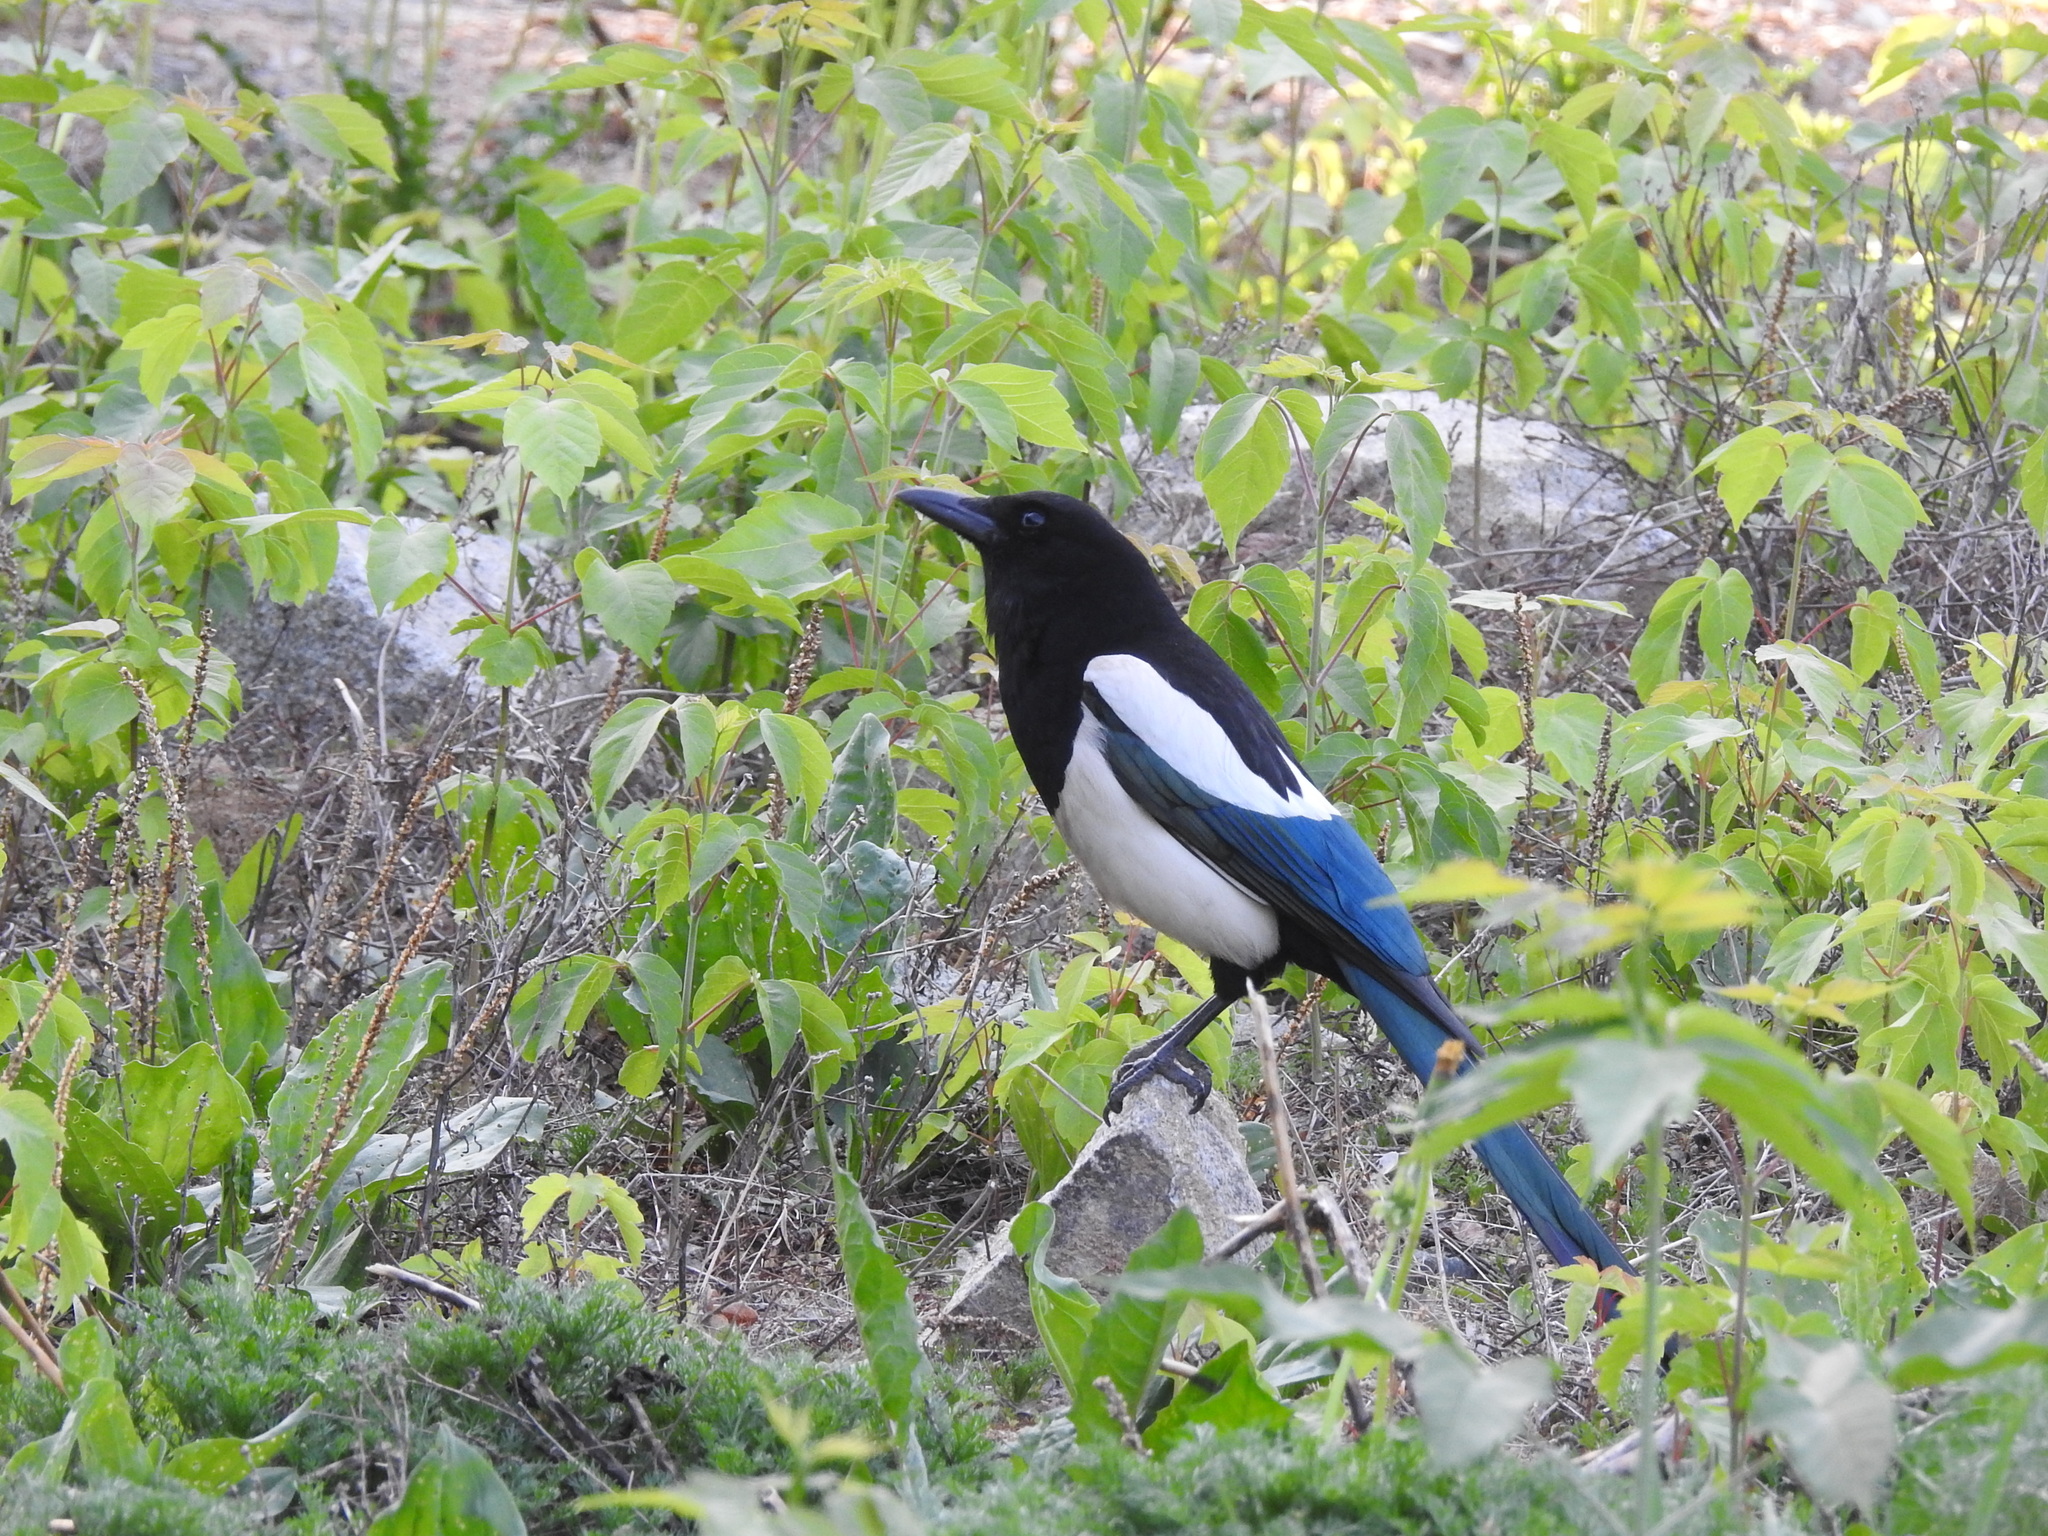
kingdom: Animalia
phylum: Chordata
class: Aves
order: Passeriformes
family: Corvidae
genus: Pica
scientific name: Pica pica
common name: Eurasian magpie
